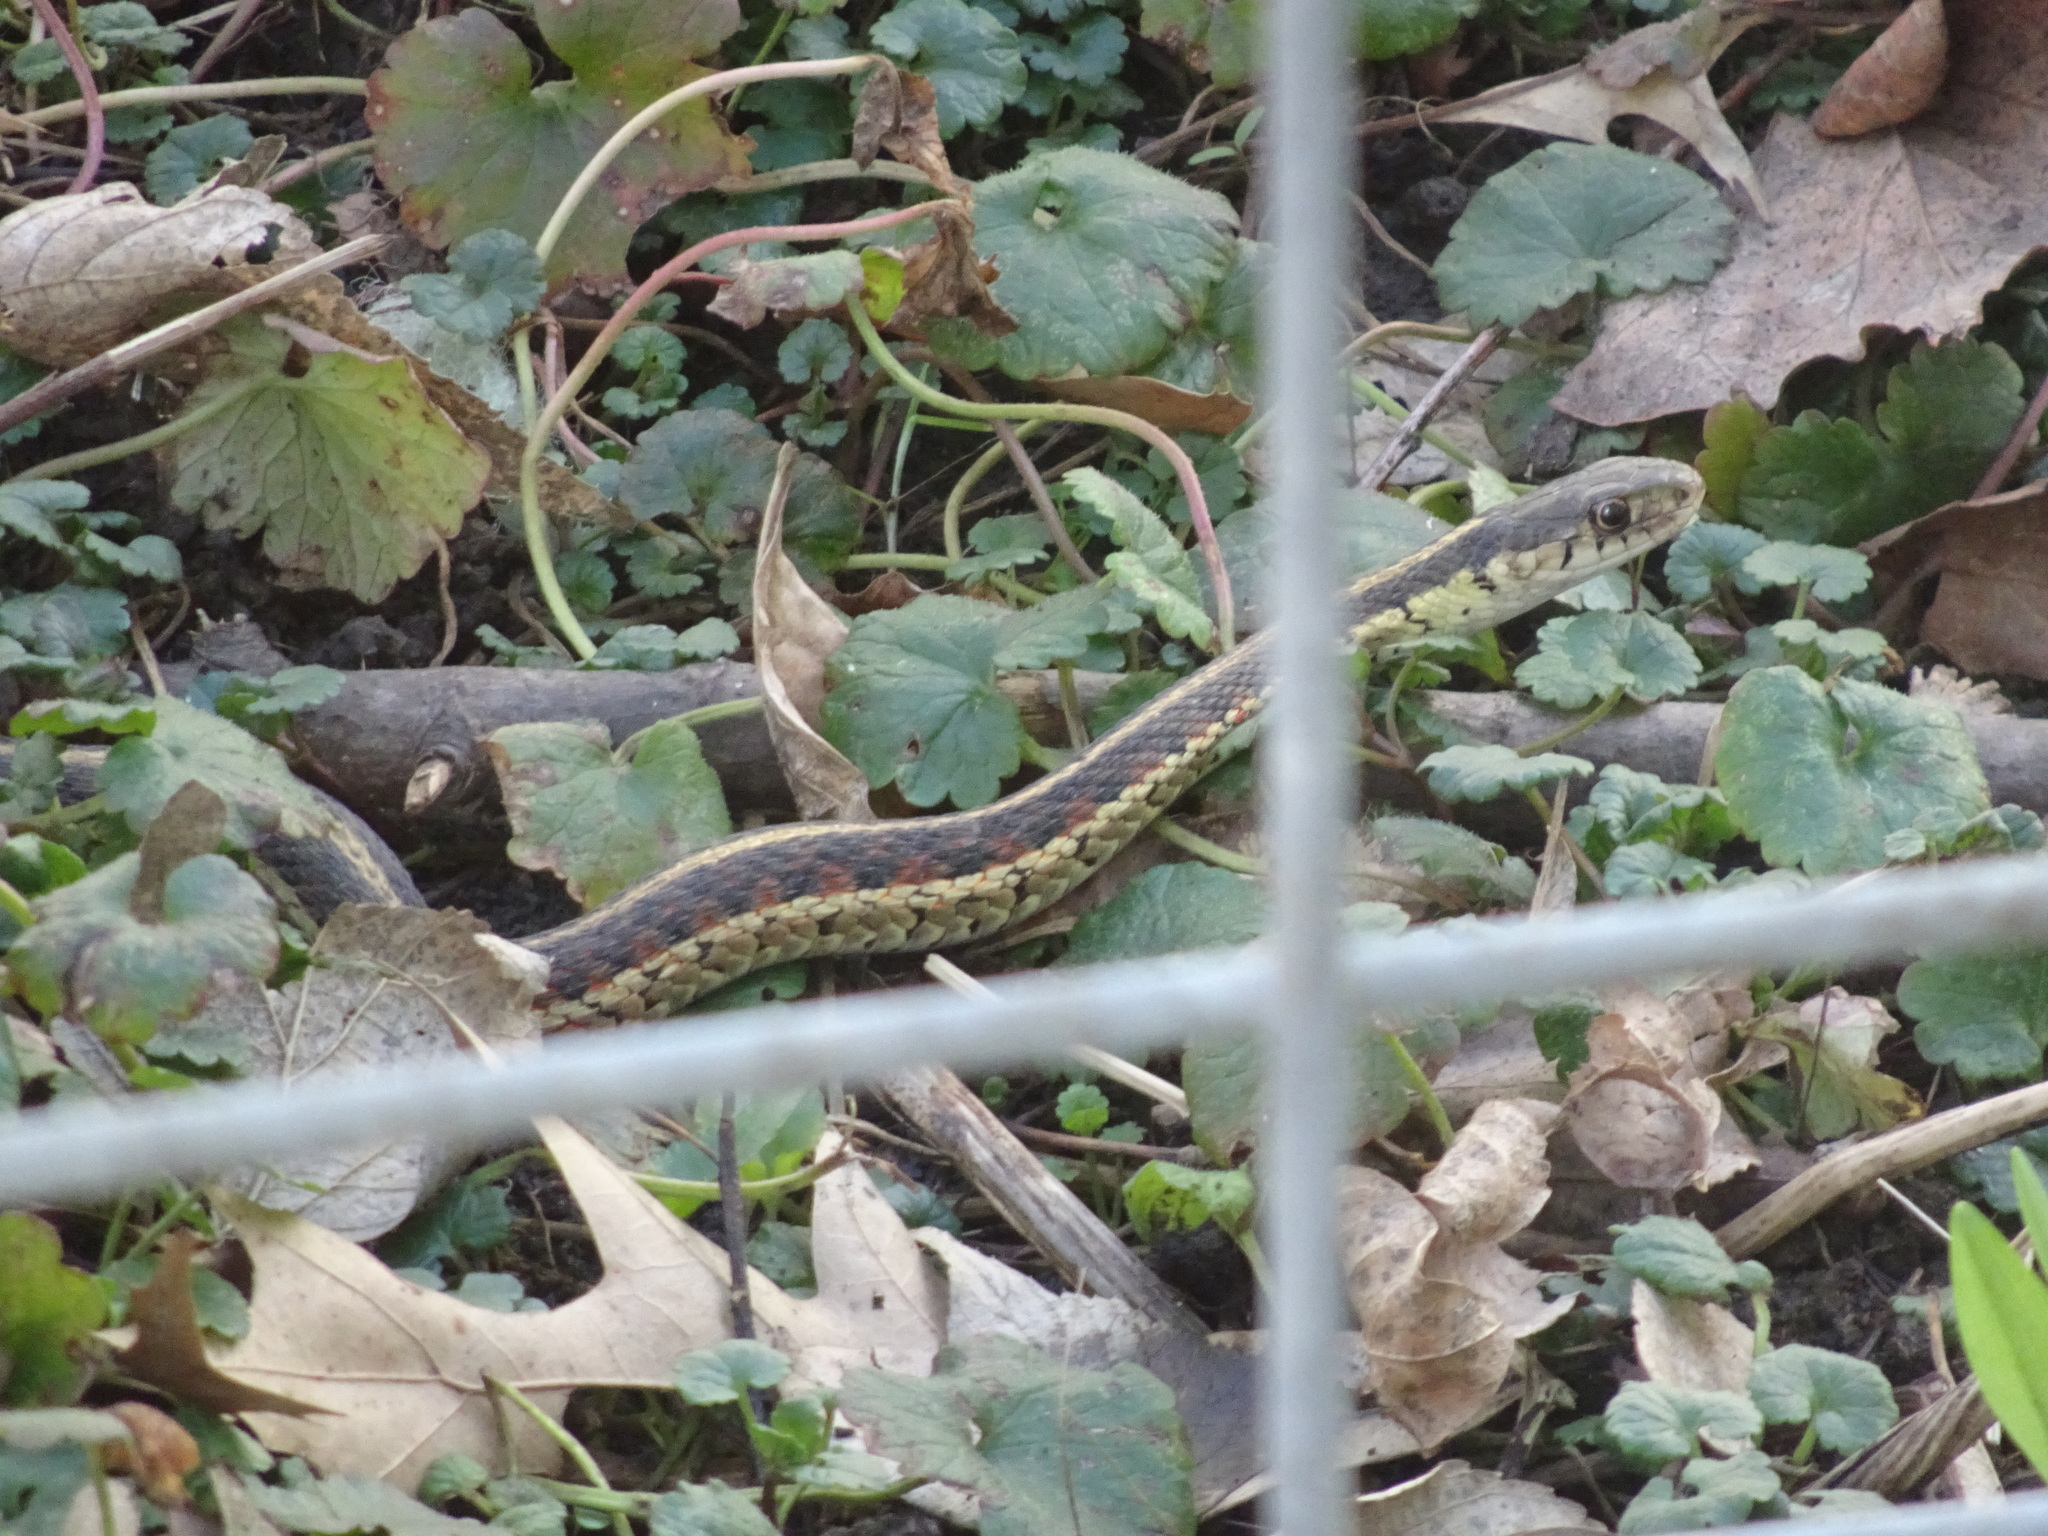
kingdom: Animalia
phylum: Chordata
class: Squamata
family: Colubridae
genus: Thamnophis
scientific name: Thamnophis sirtalis
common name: Common garter snake
